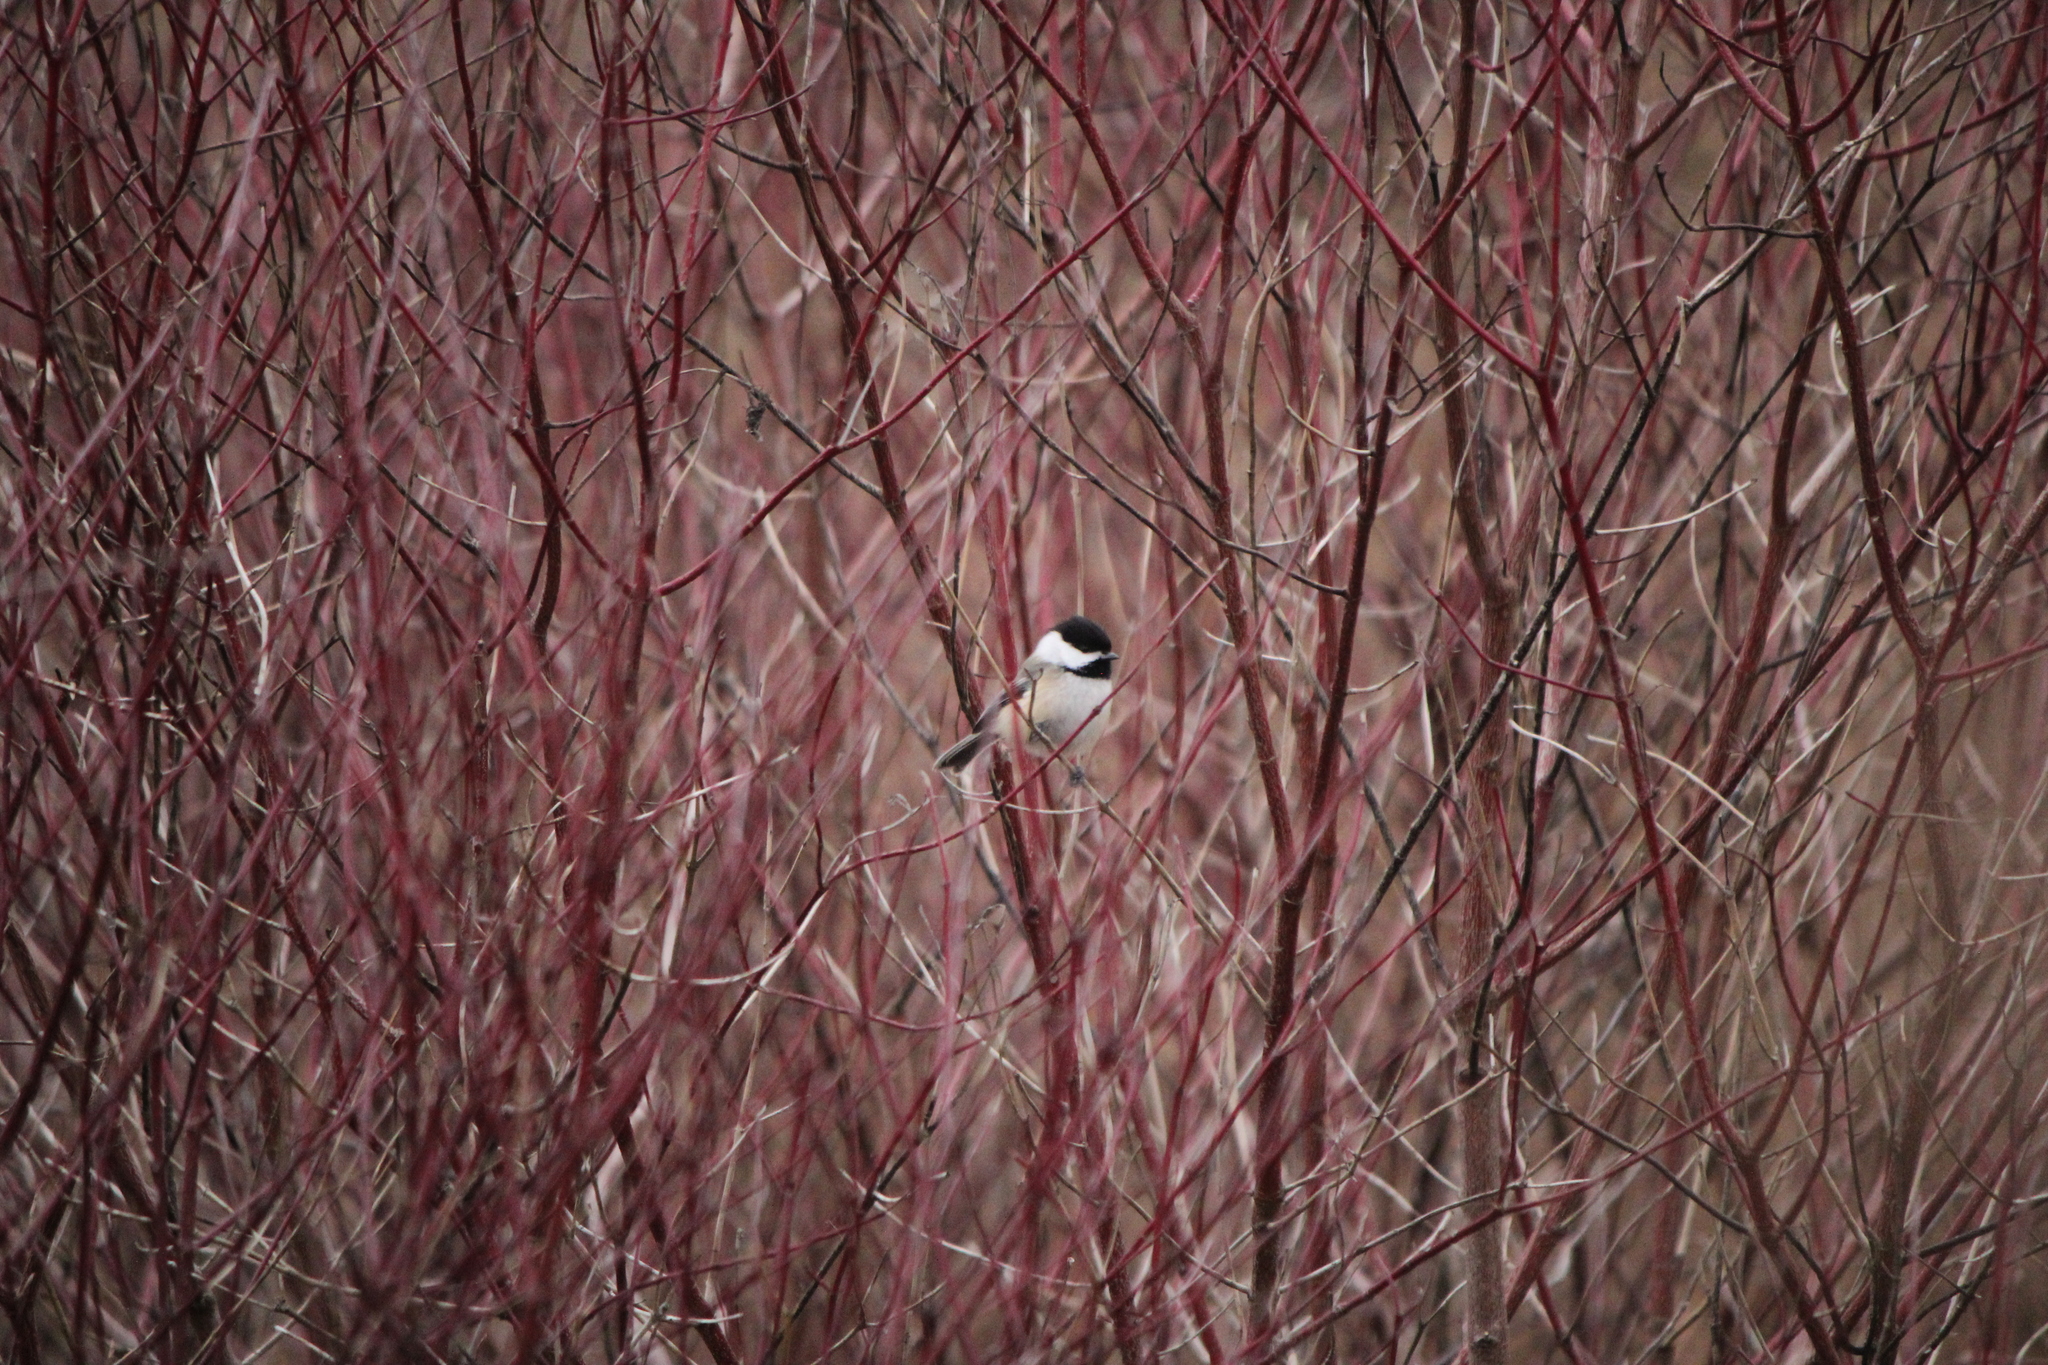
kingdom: Animalia
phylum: Chordata
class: Aves
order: Passeriformes
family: Paridae
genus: Poecile
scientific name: Poecile atricapillus
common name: Black-capped chickadee
